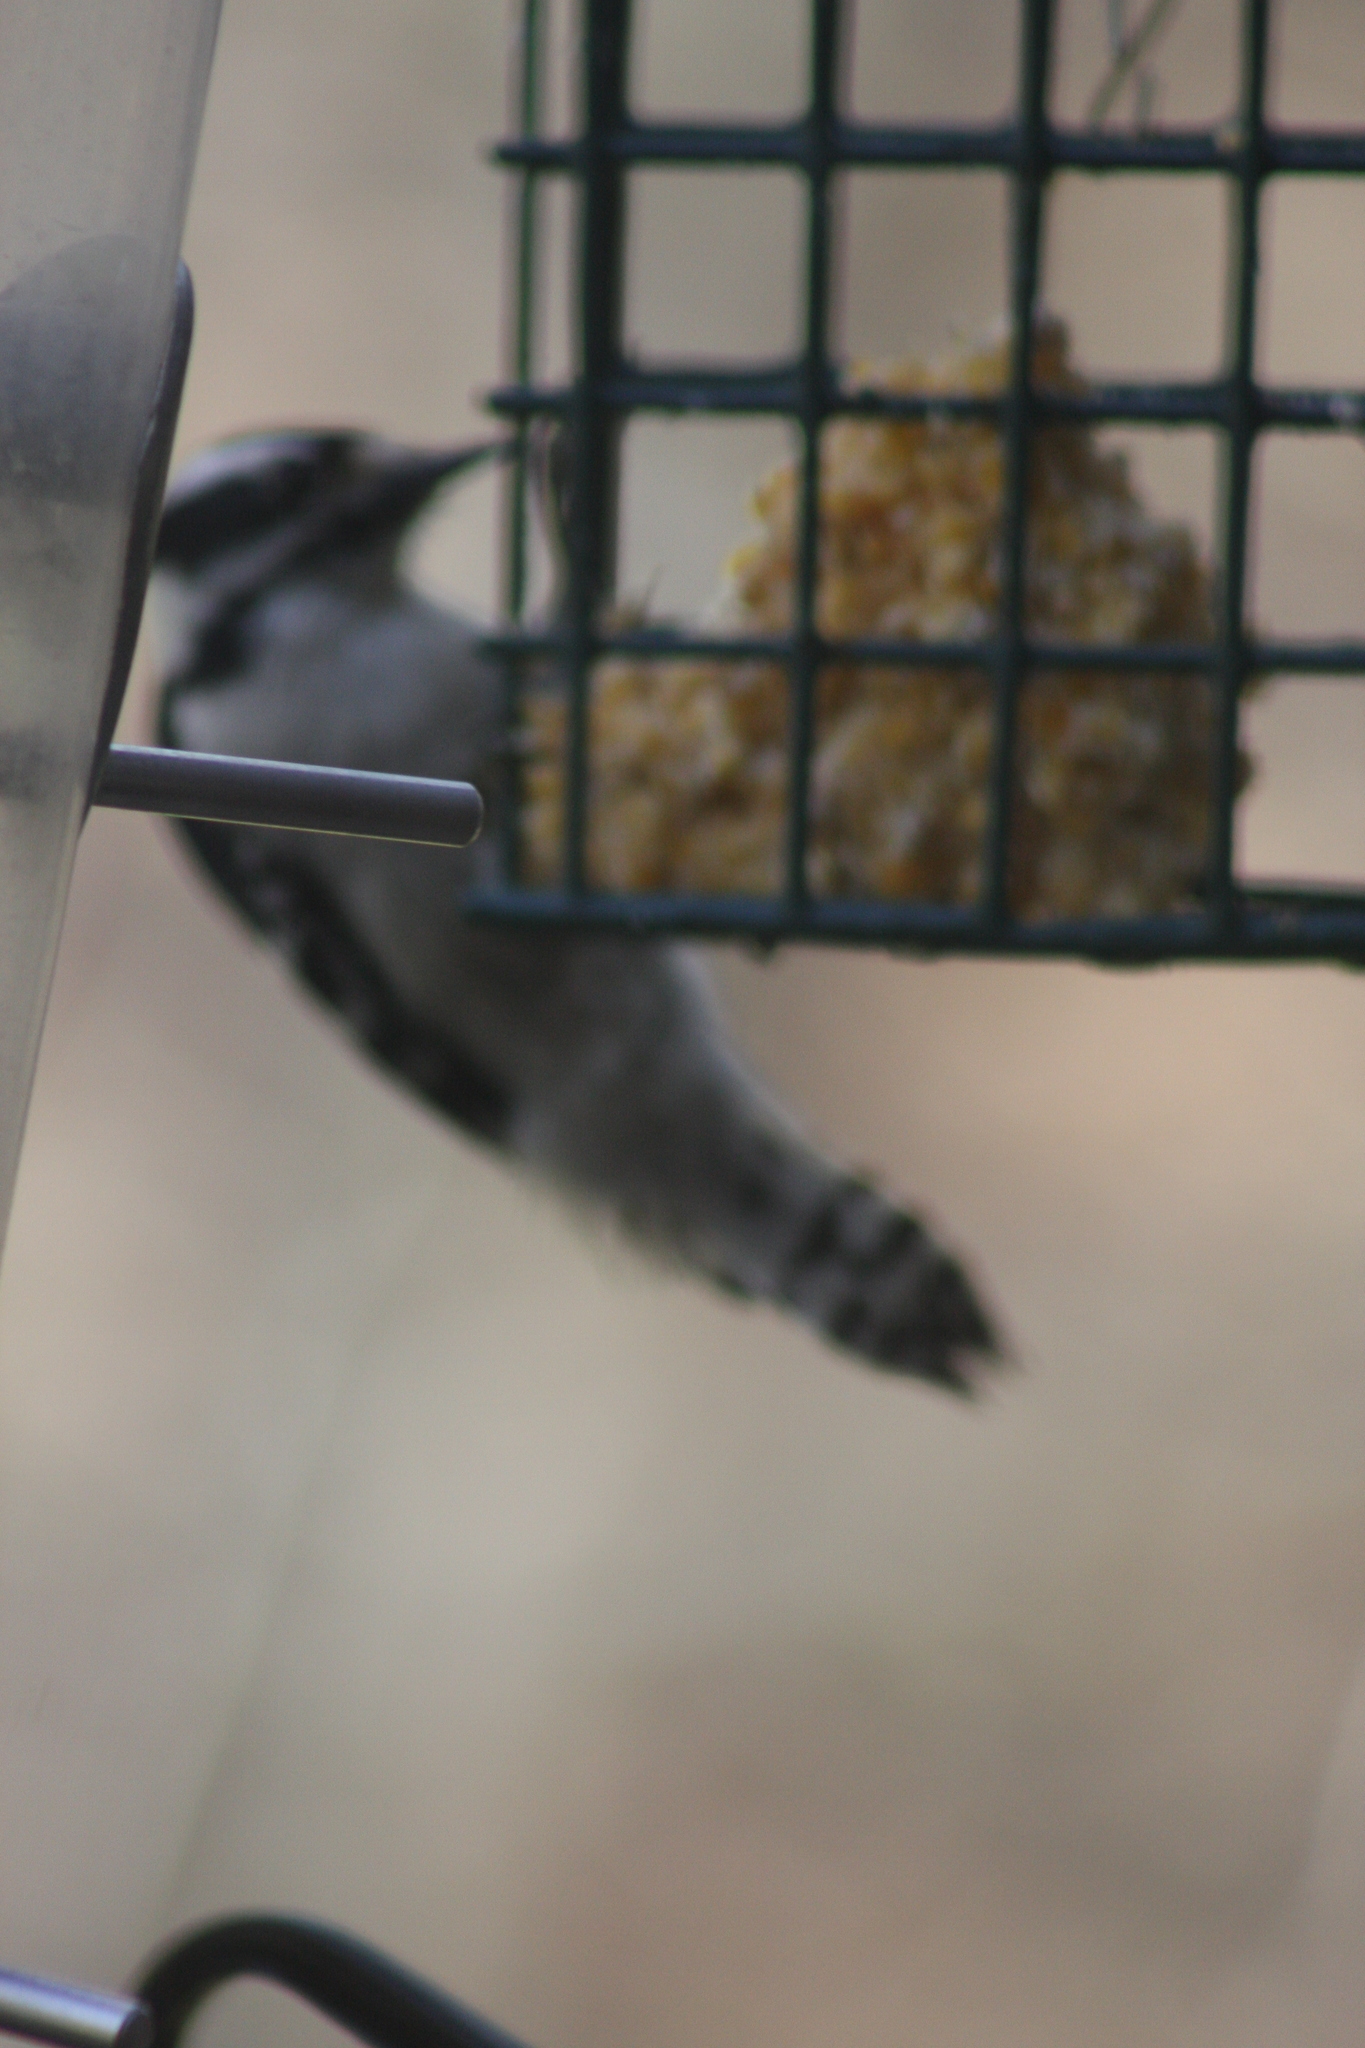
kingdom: Animalia
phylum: Chordata
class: Aves
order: Piciformes
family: Picidae
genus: Dryobates
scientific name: Dryobates pubescens
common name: Downy woodpecker
